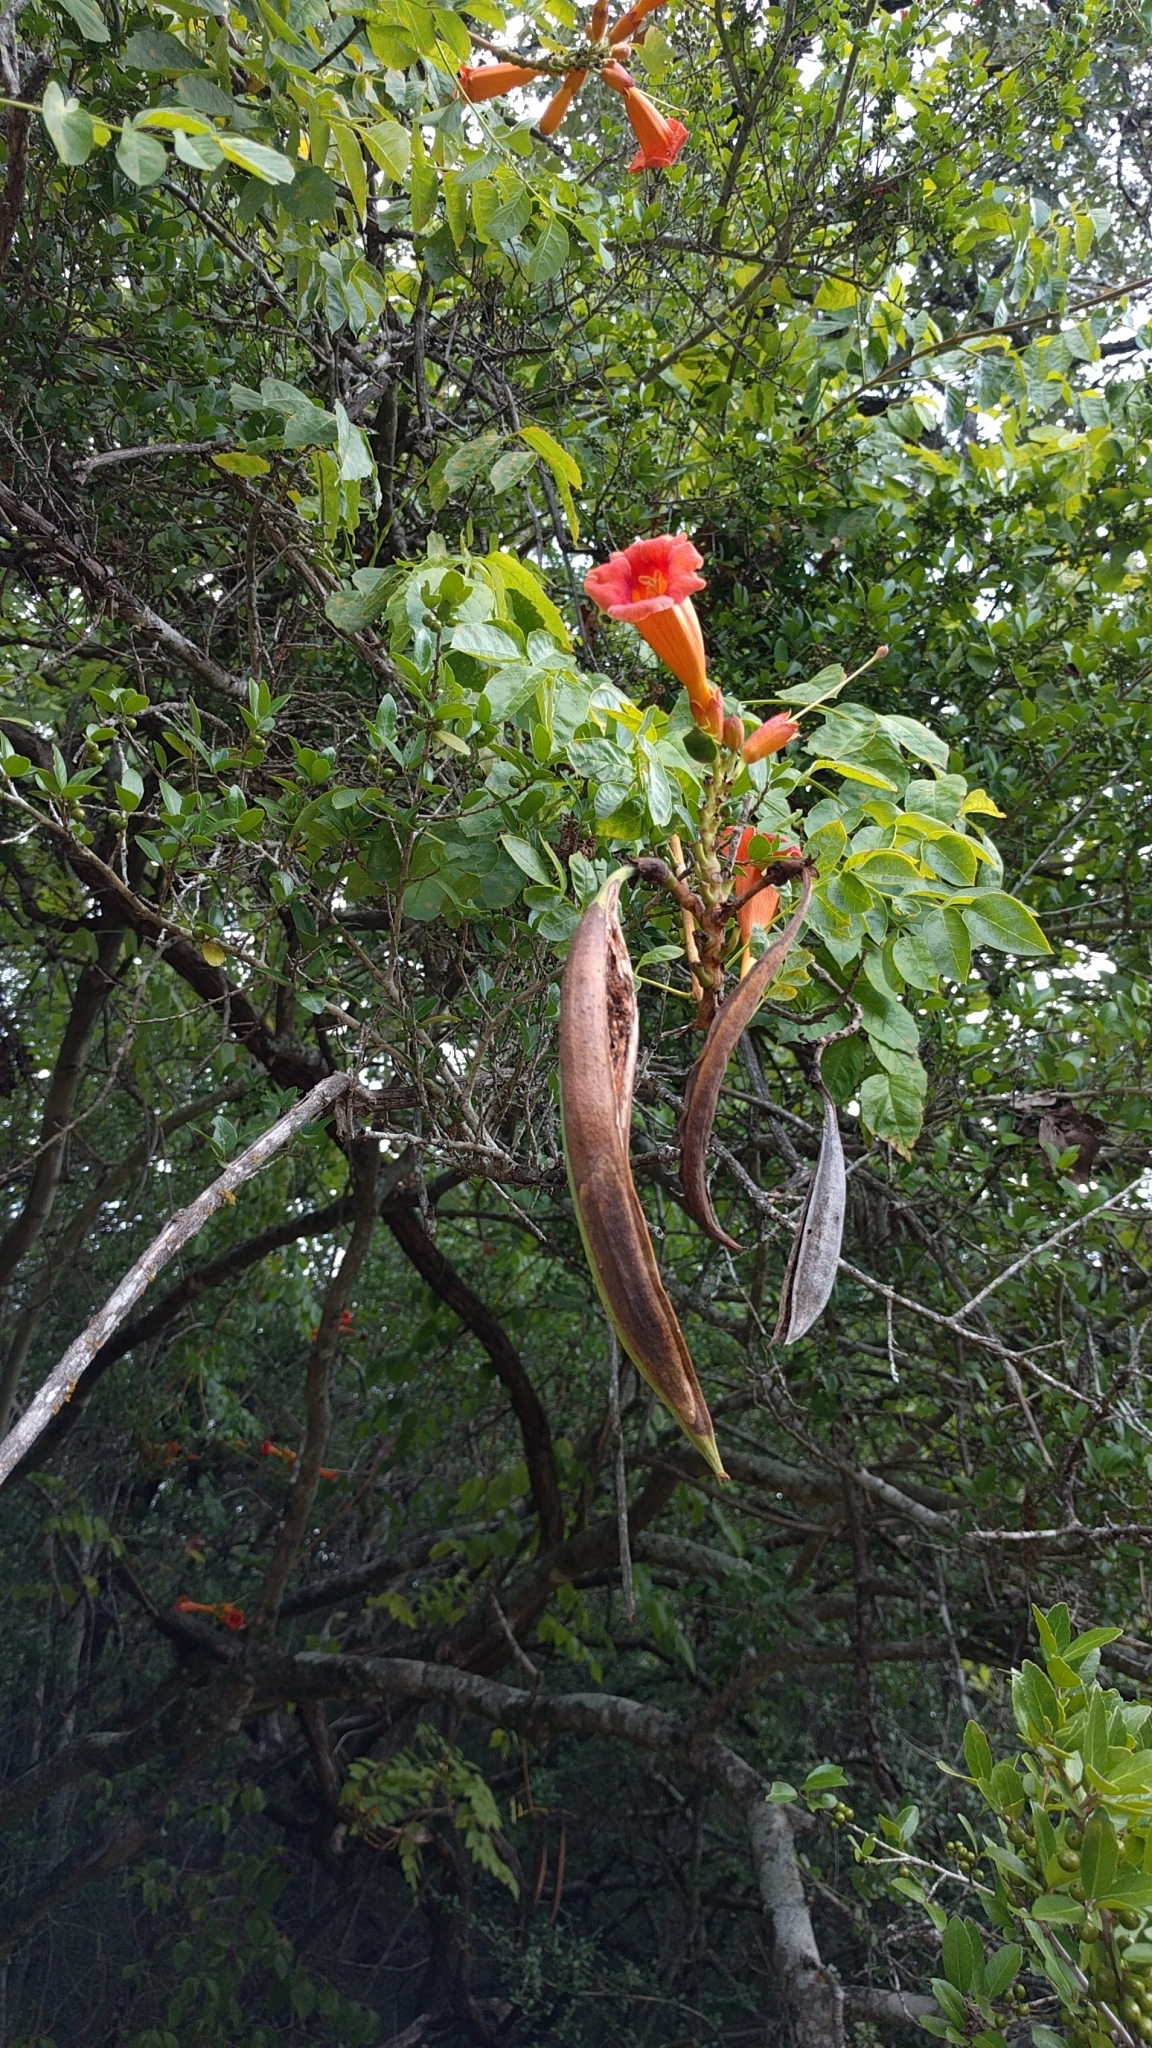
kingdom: Plantae
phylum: Tracheophyta
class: Magnoliopsida
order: Lamiales
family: Bignoniaceae
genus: Campsis
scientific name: Campsis radicans
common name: Trumpet-creeper
